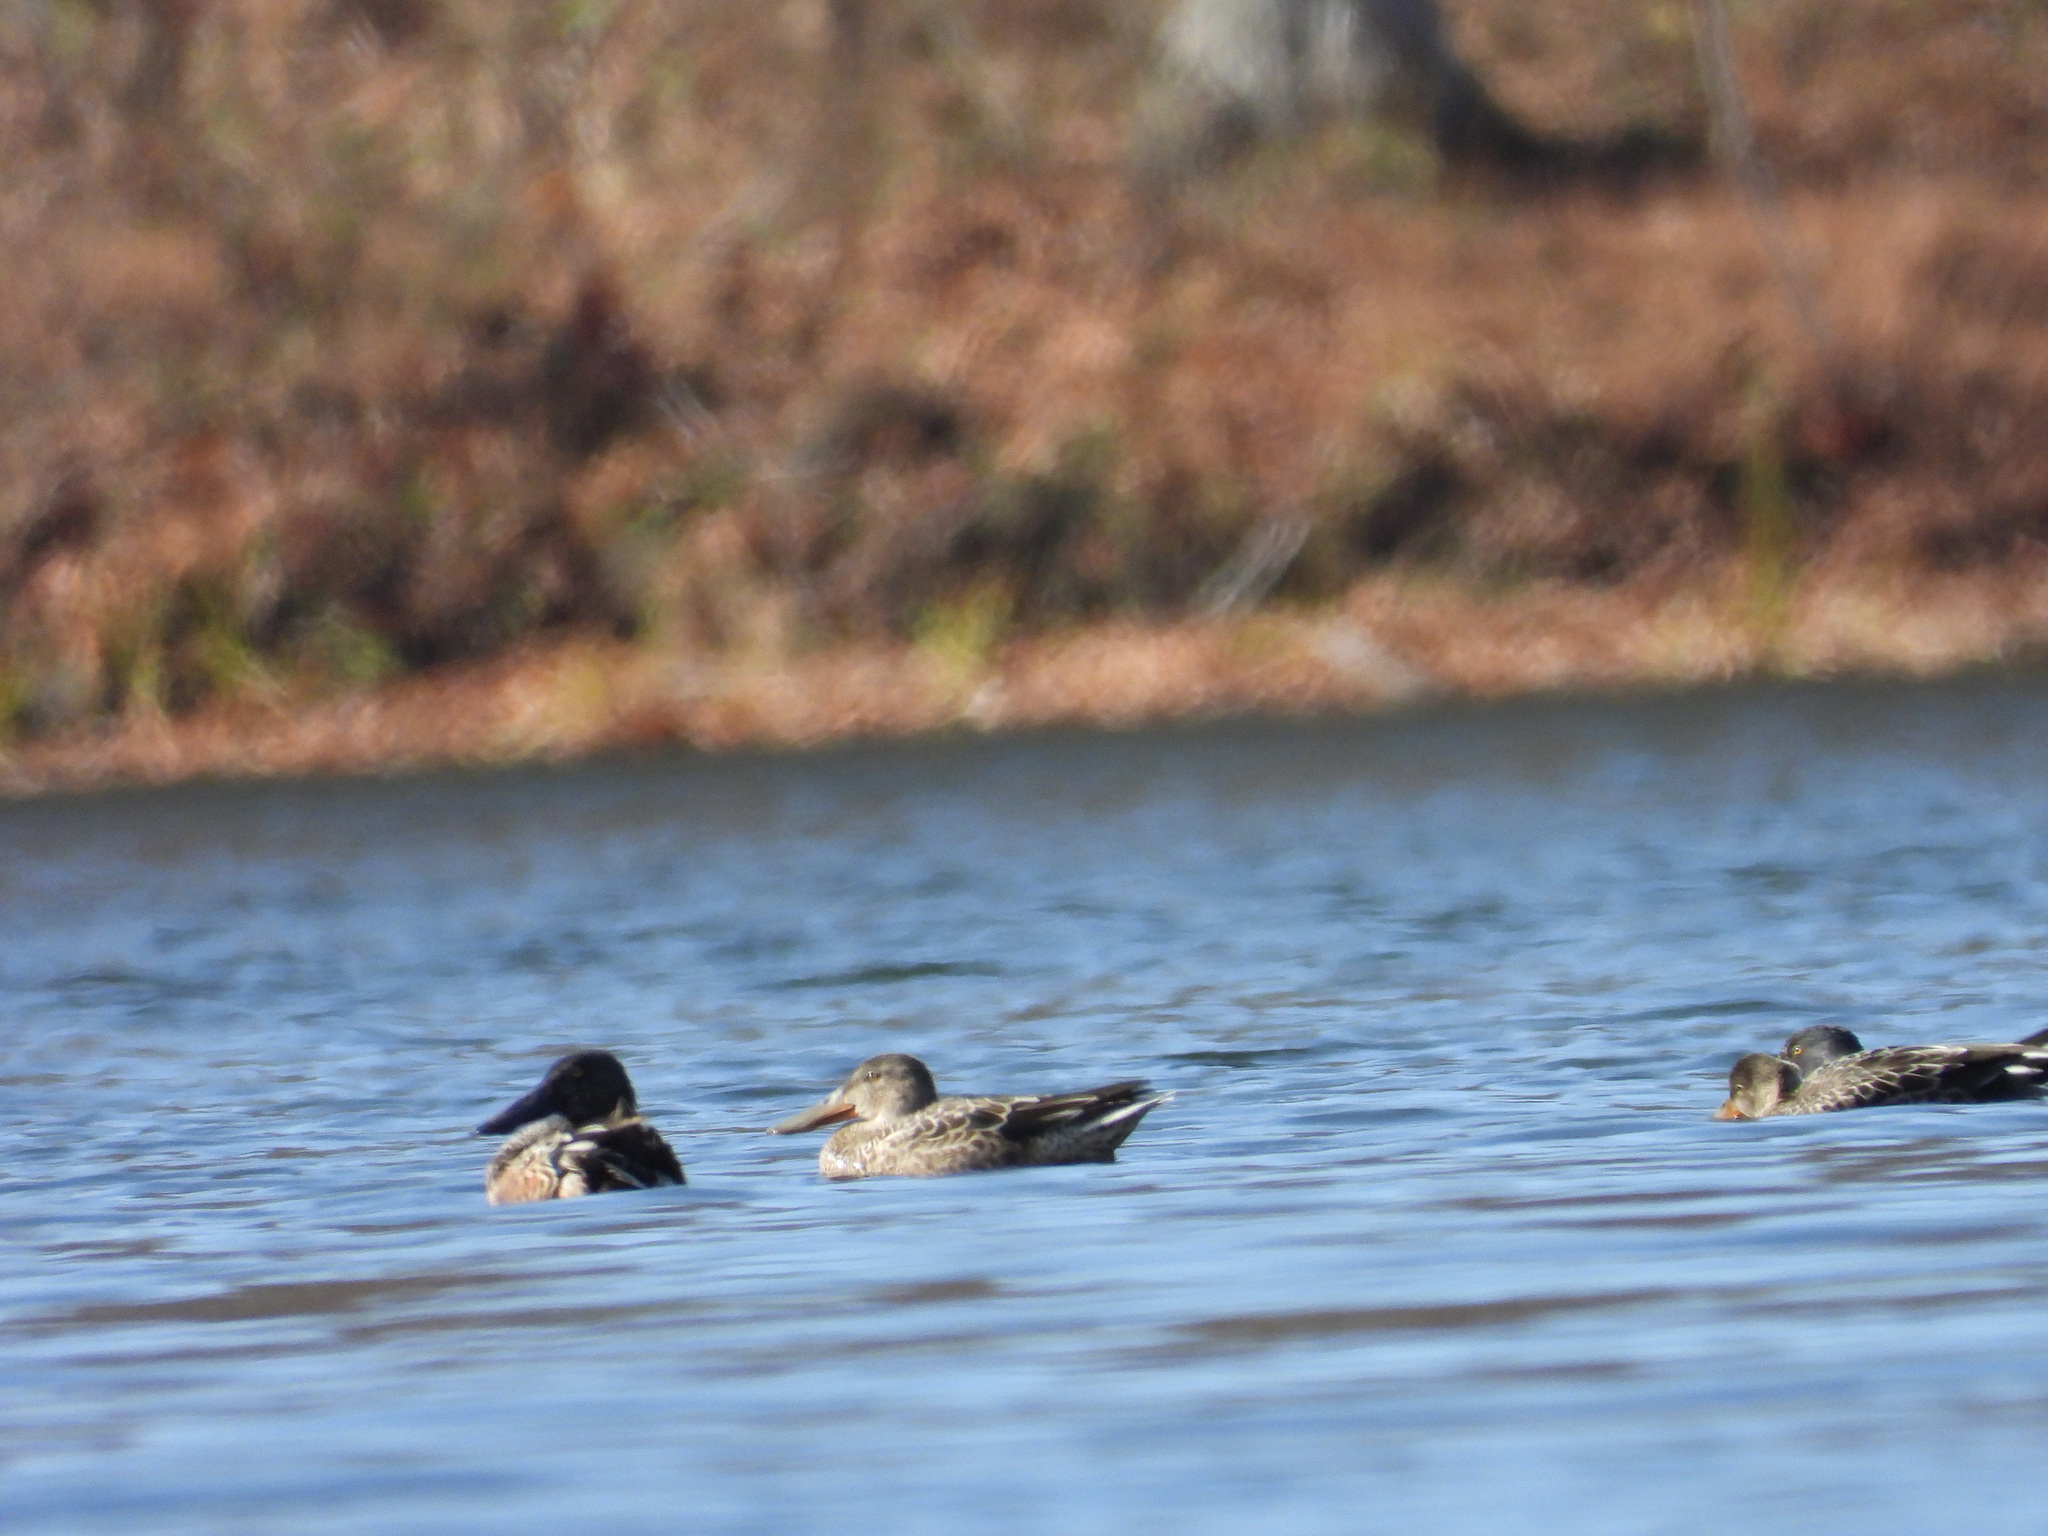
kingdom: Animalia
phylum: Chordata
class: Aves
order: Anseriformes
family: Anatidae
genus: Spatula
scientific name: Spatula clypeata
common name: Northern shoveler
